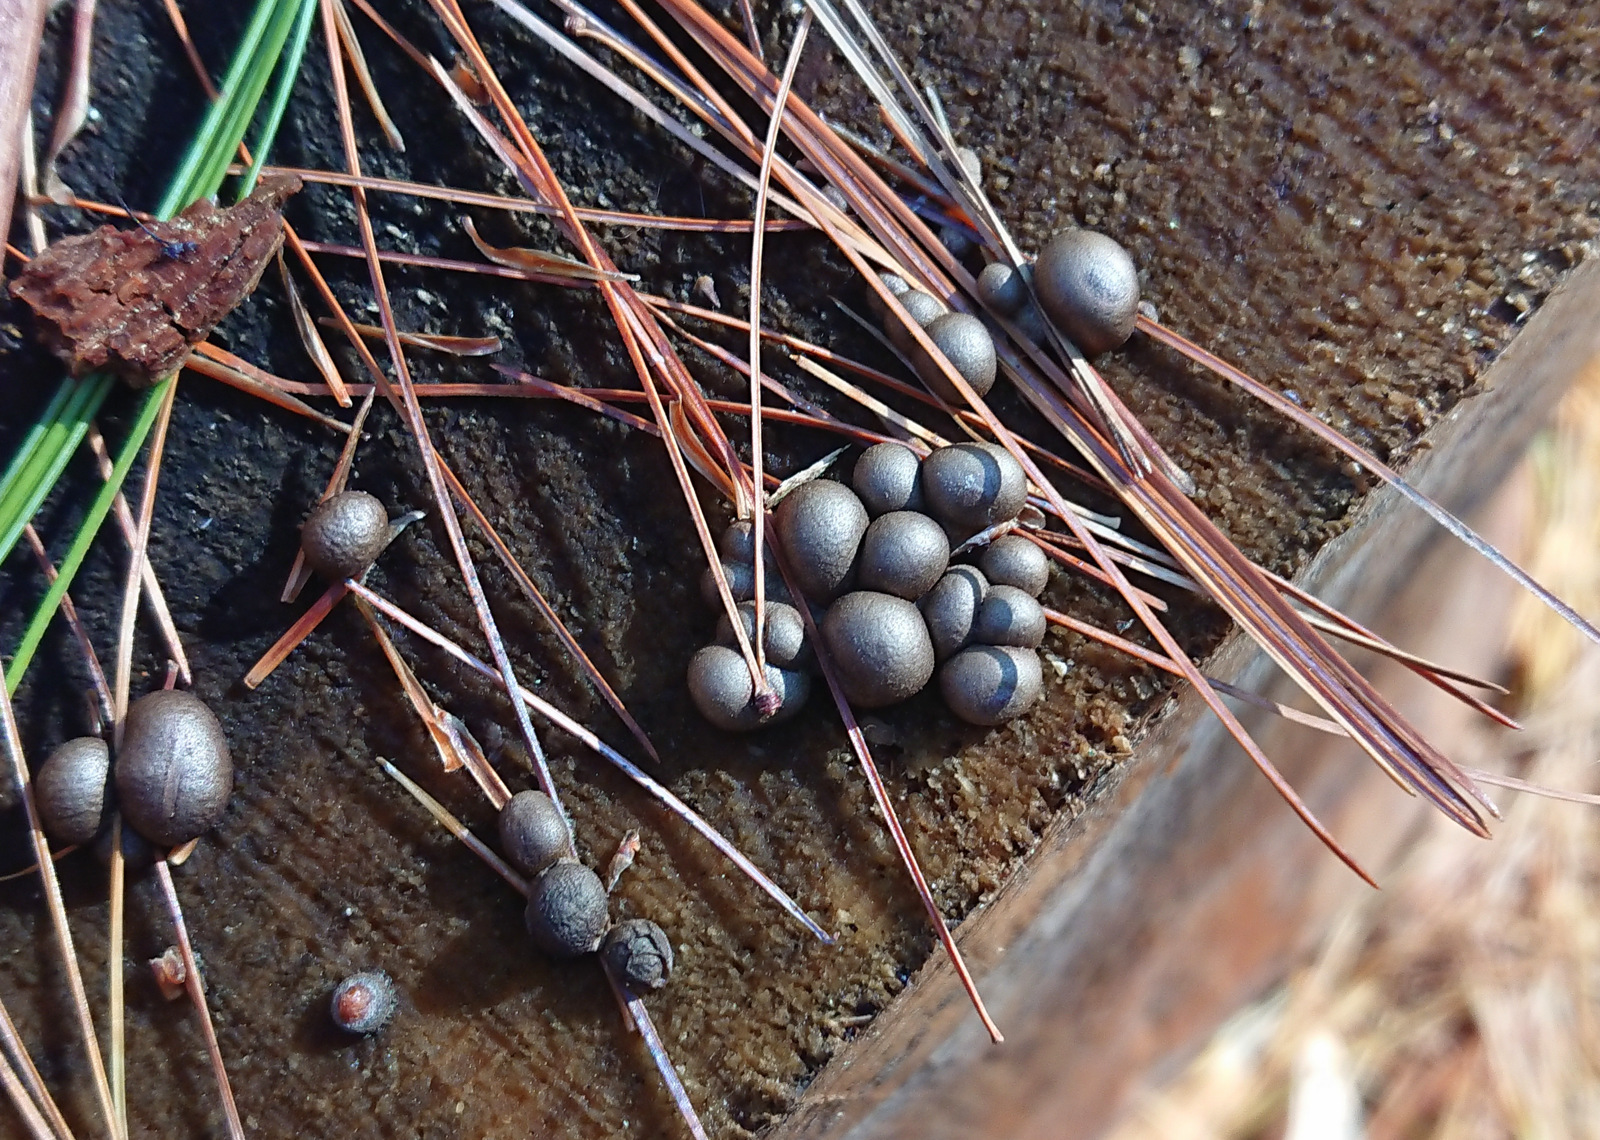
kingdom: Protozoa
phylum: Mycetozoa
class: Myxomycetes
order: Cribrariales
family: Tubiferaceae
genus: Lycogala
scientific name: Lycogala epidendrum
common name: Wolf's milk
